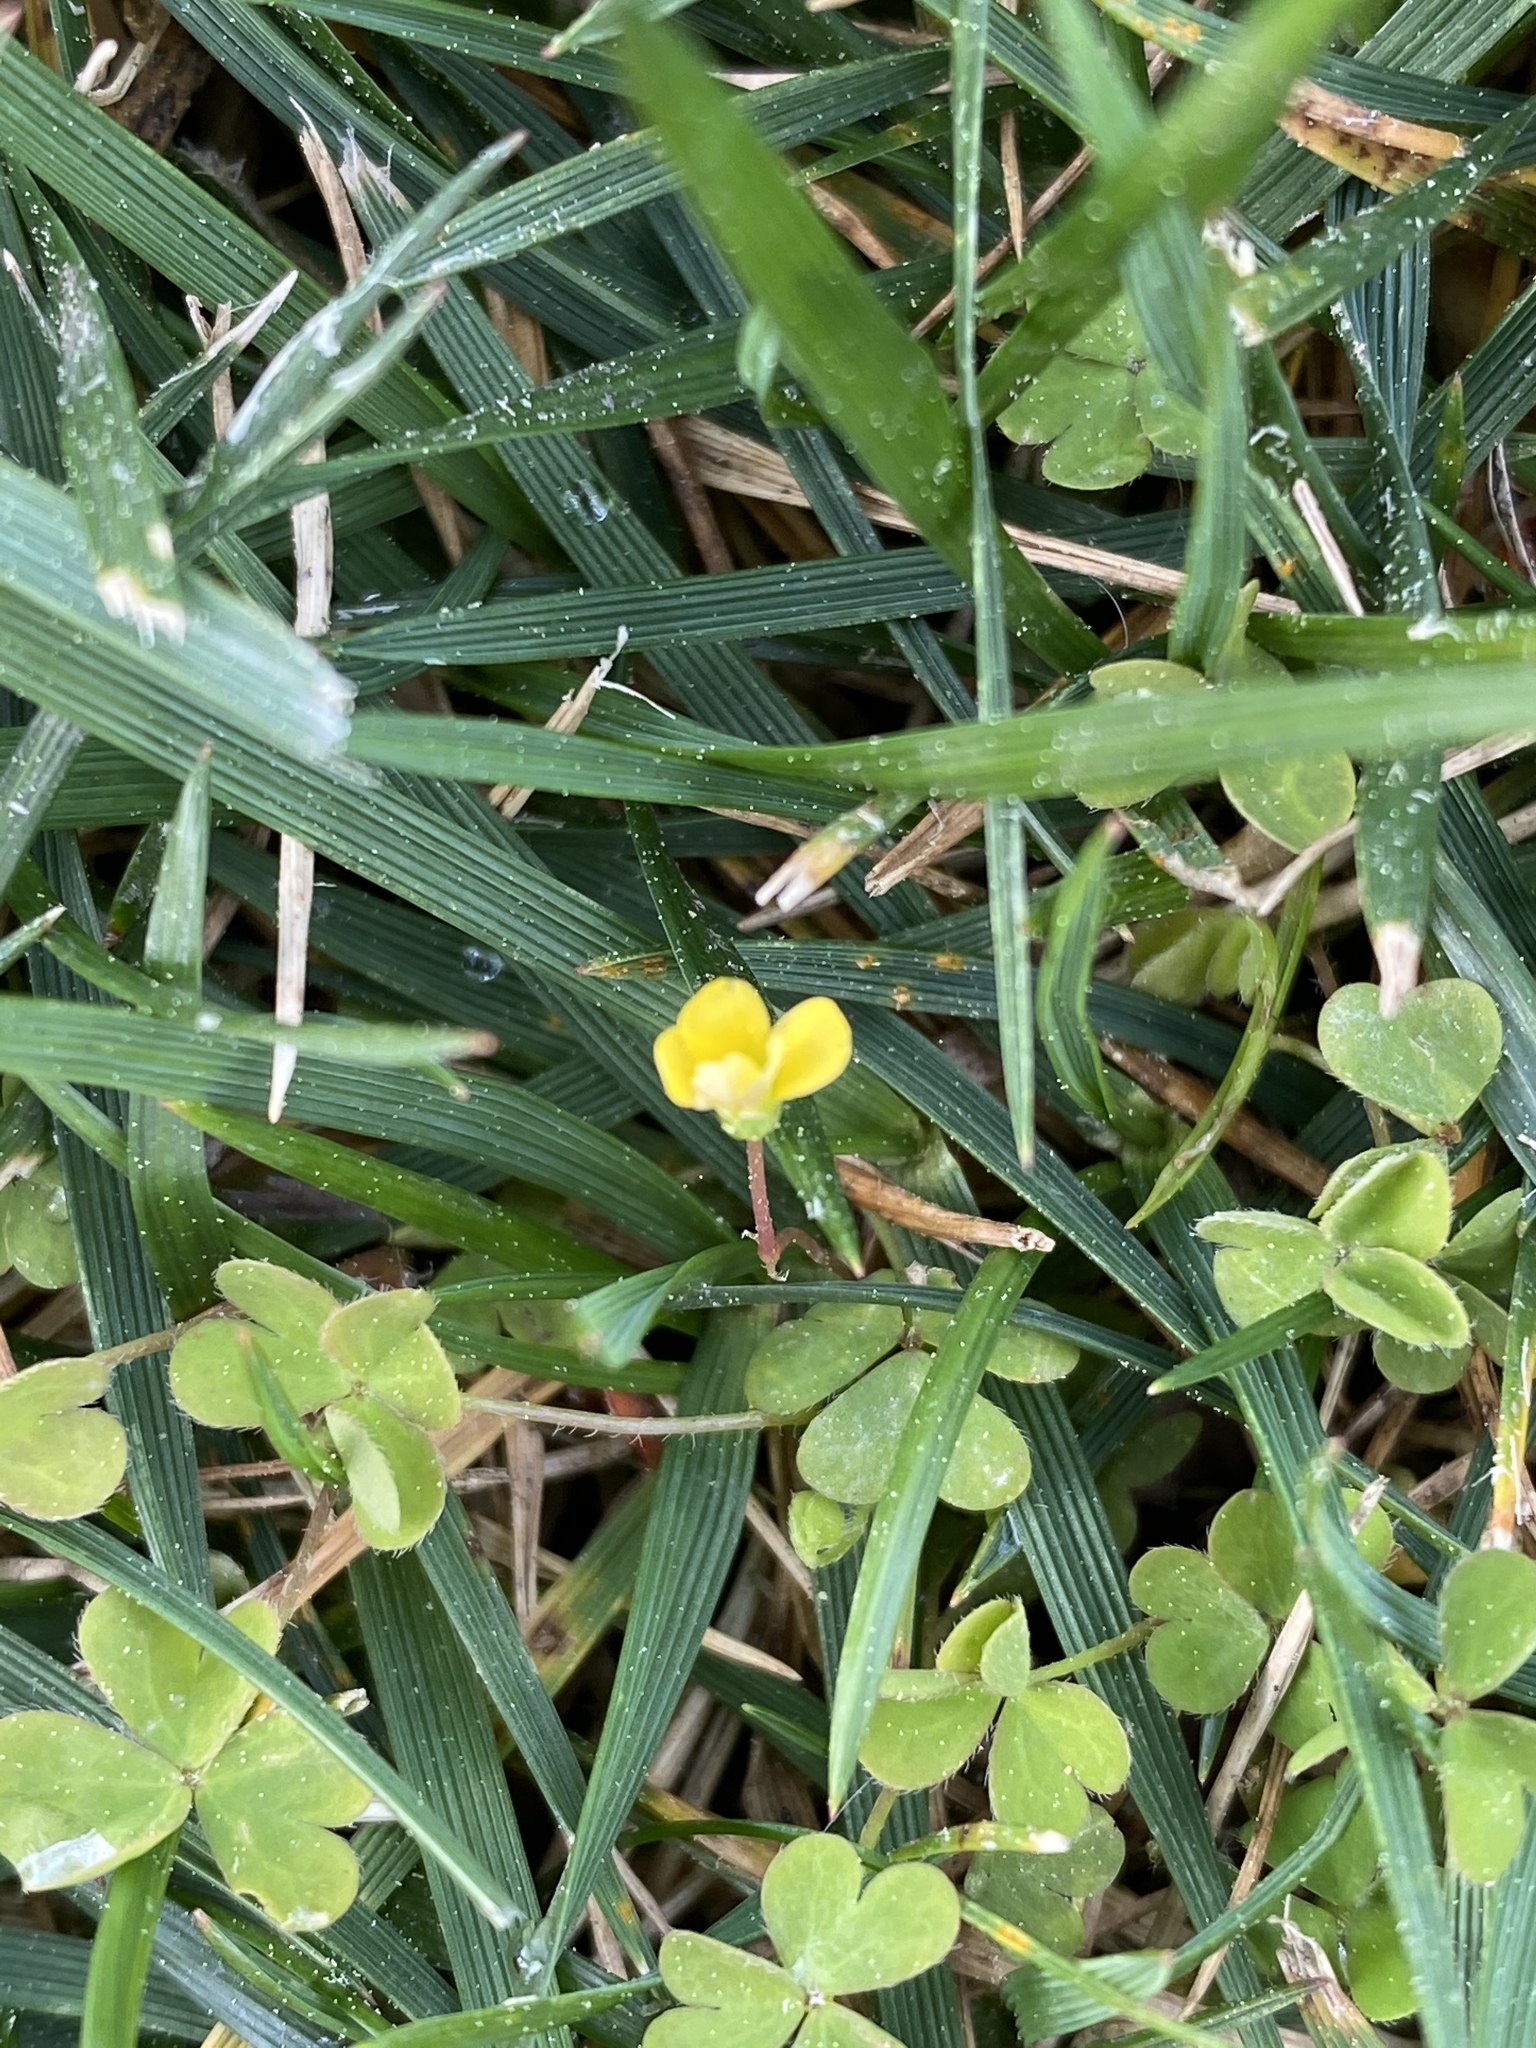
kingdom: Plantae
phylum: Tracheophyta
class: Magnoliopsida
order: Fabales
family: Fabaceae
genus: Medicago
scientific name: Medicago polymorpha
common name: Burclover
